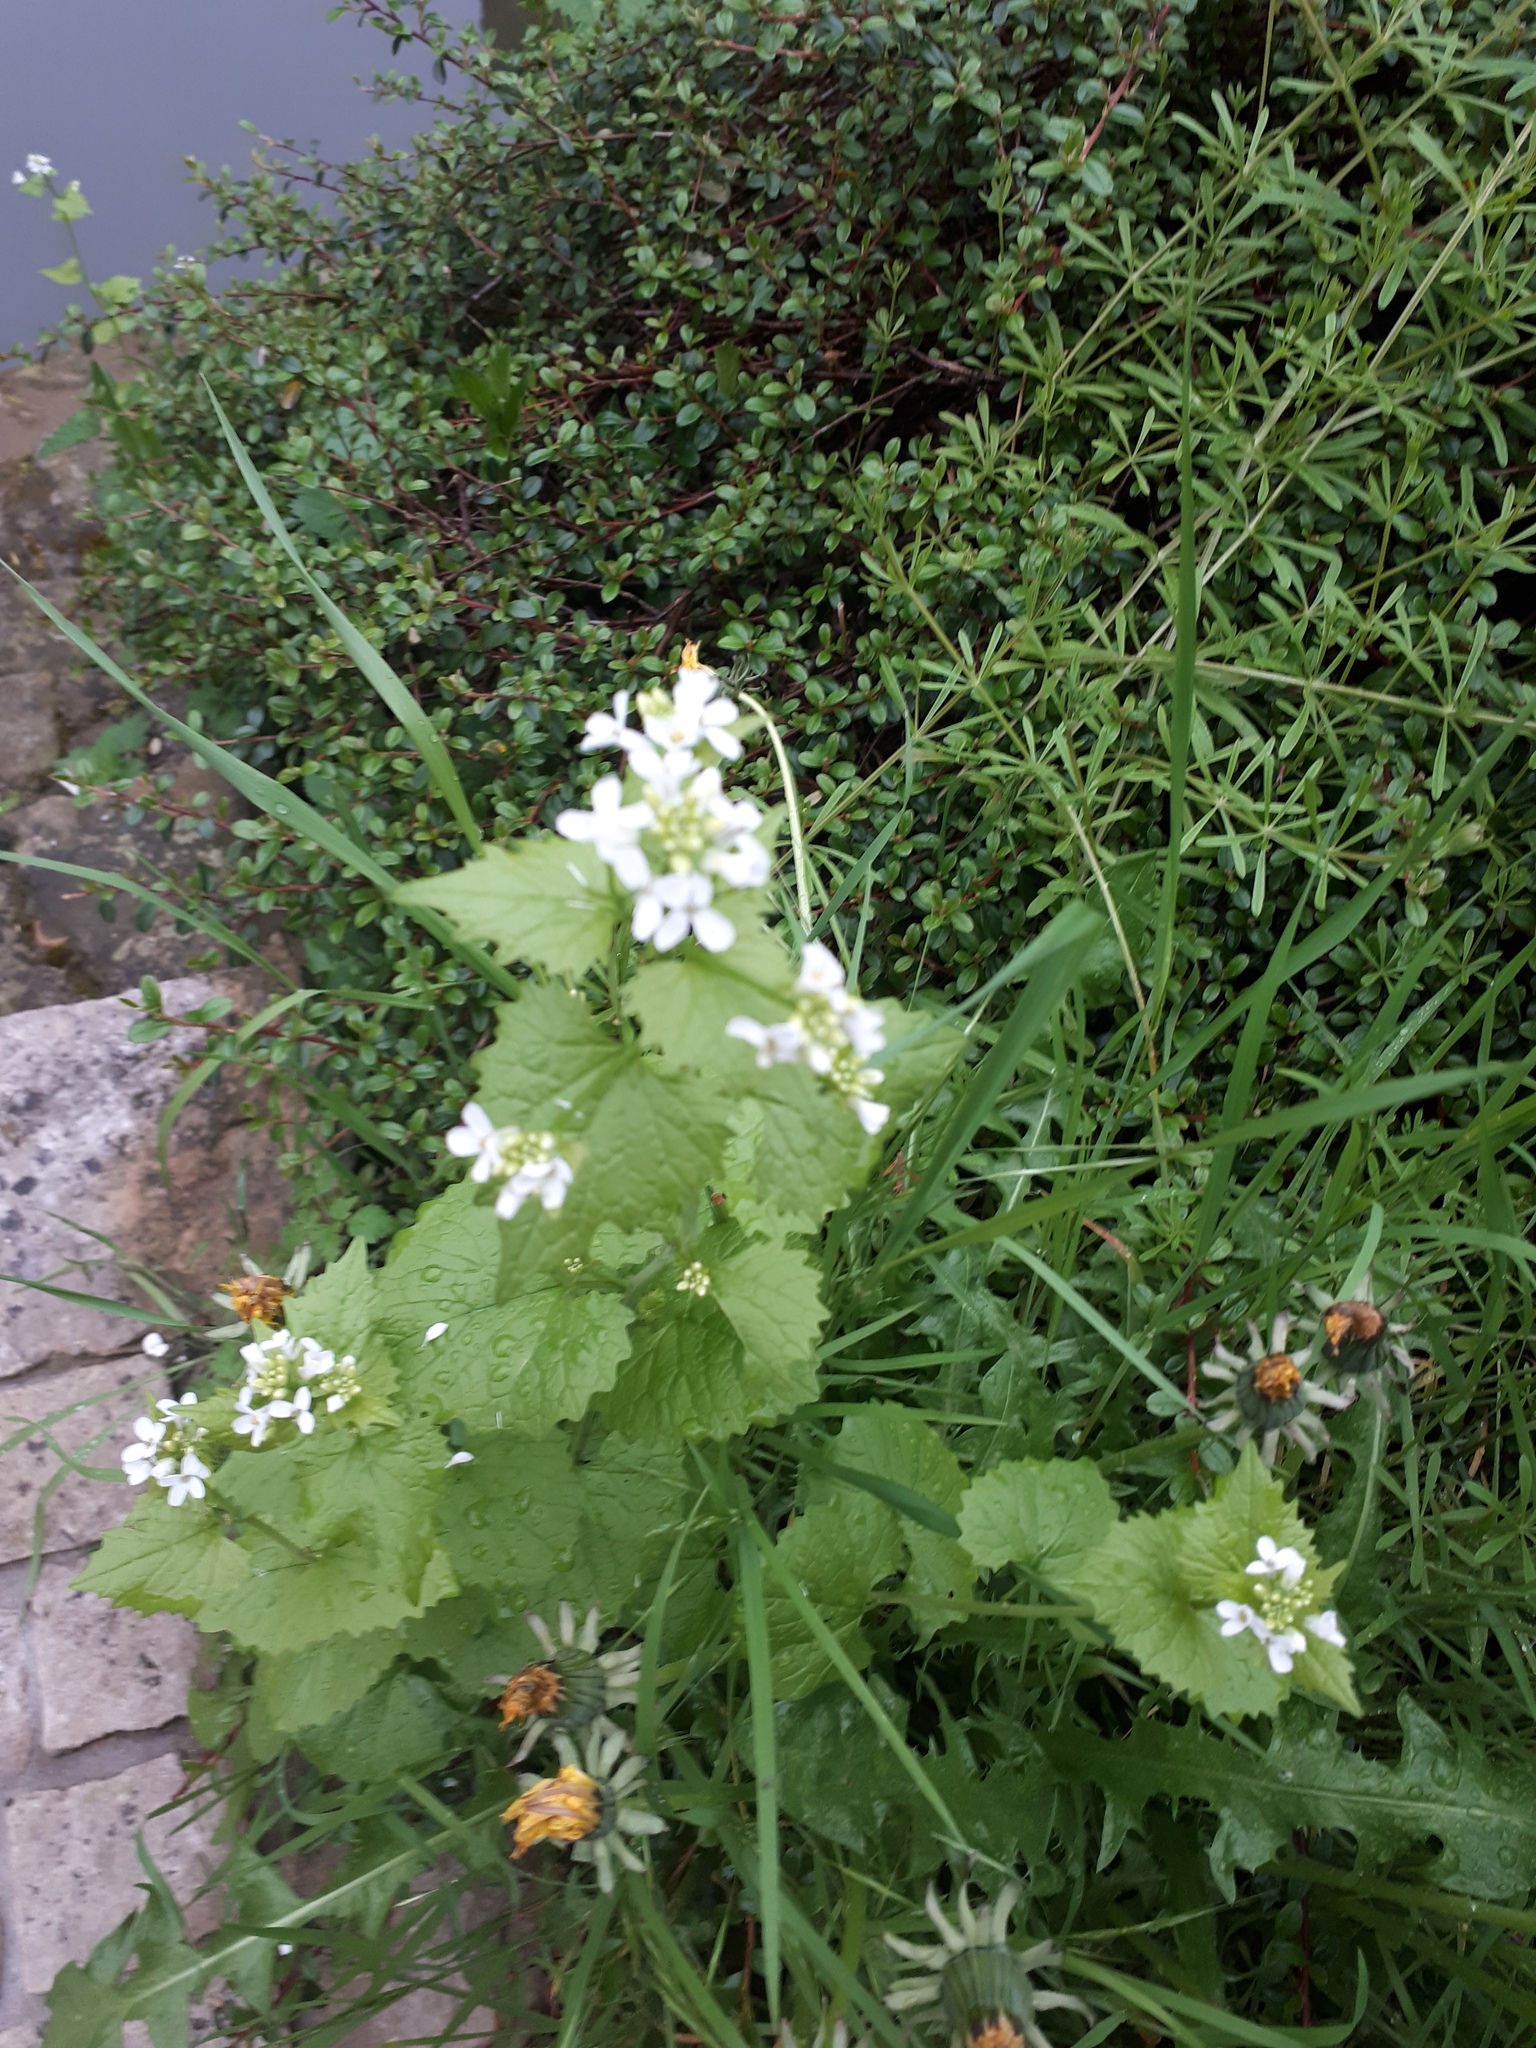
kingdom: Plantae
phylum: Tracheophyta
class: Magnoliopsida
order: Brassicales
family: Brassicaceae
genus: Alliaria
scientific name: Alliaria petiolata
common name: Garlic mustard
